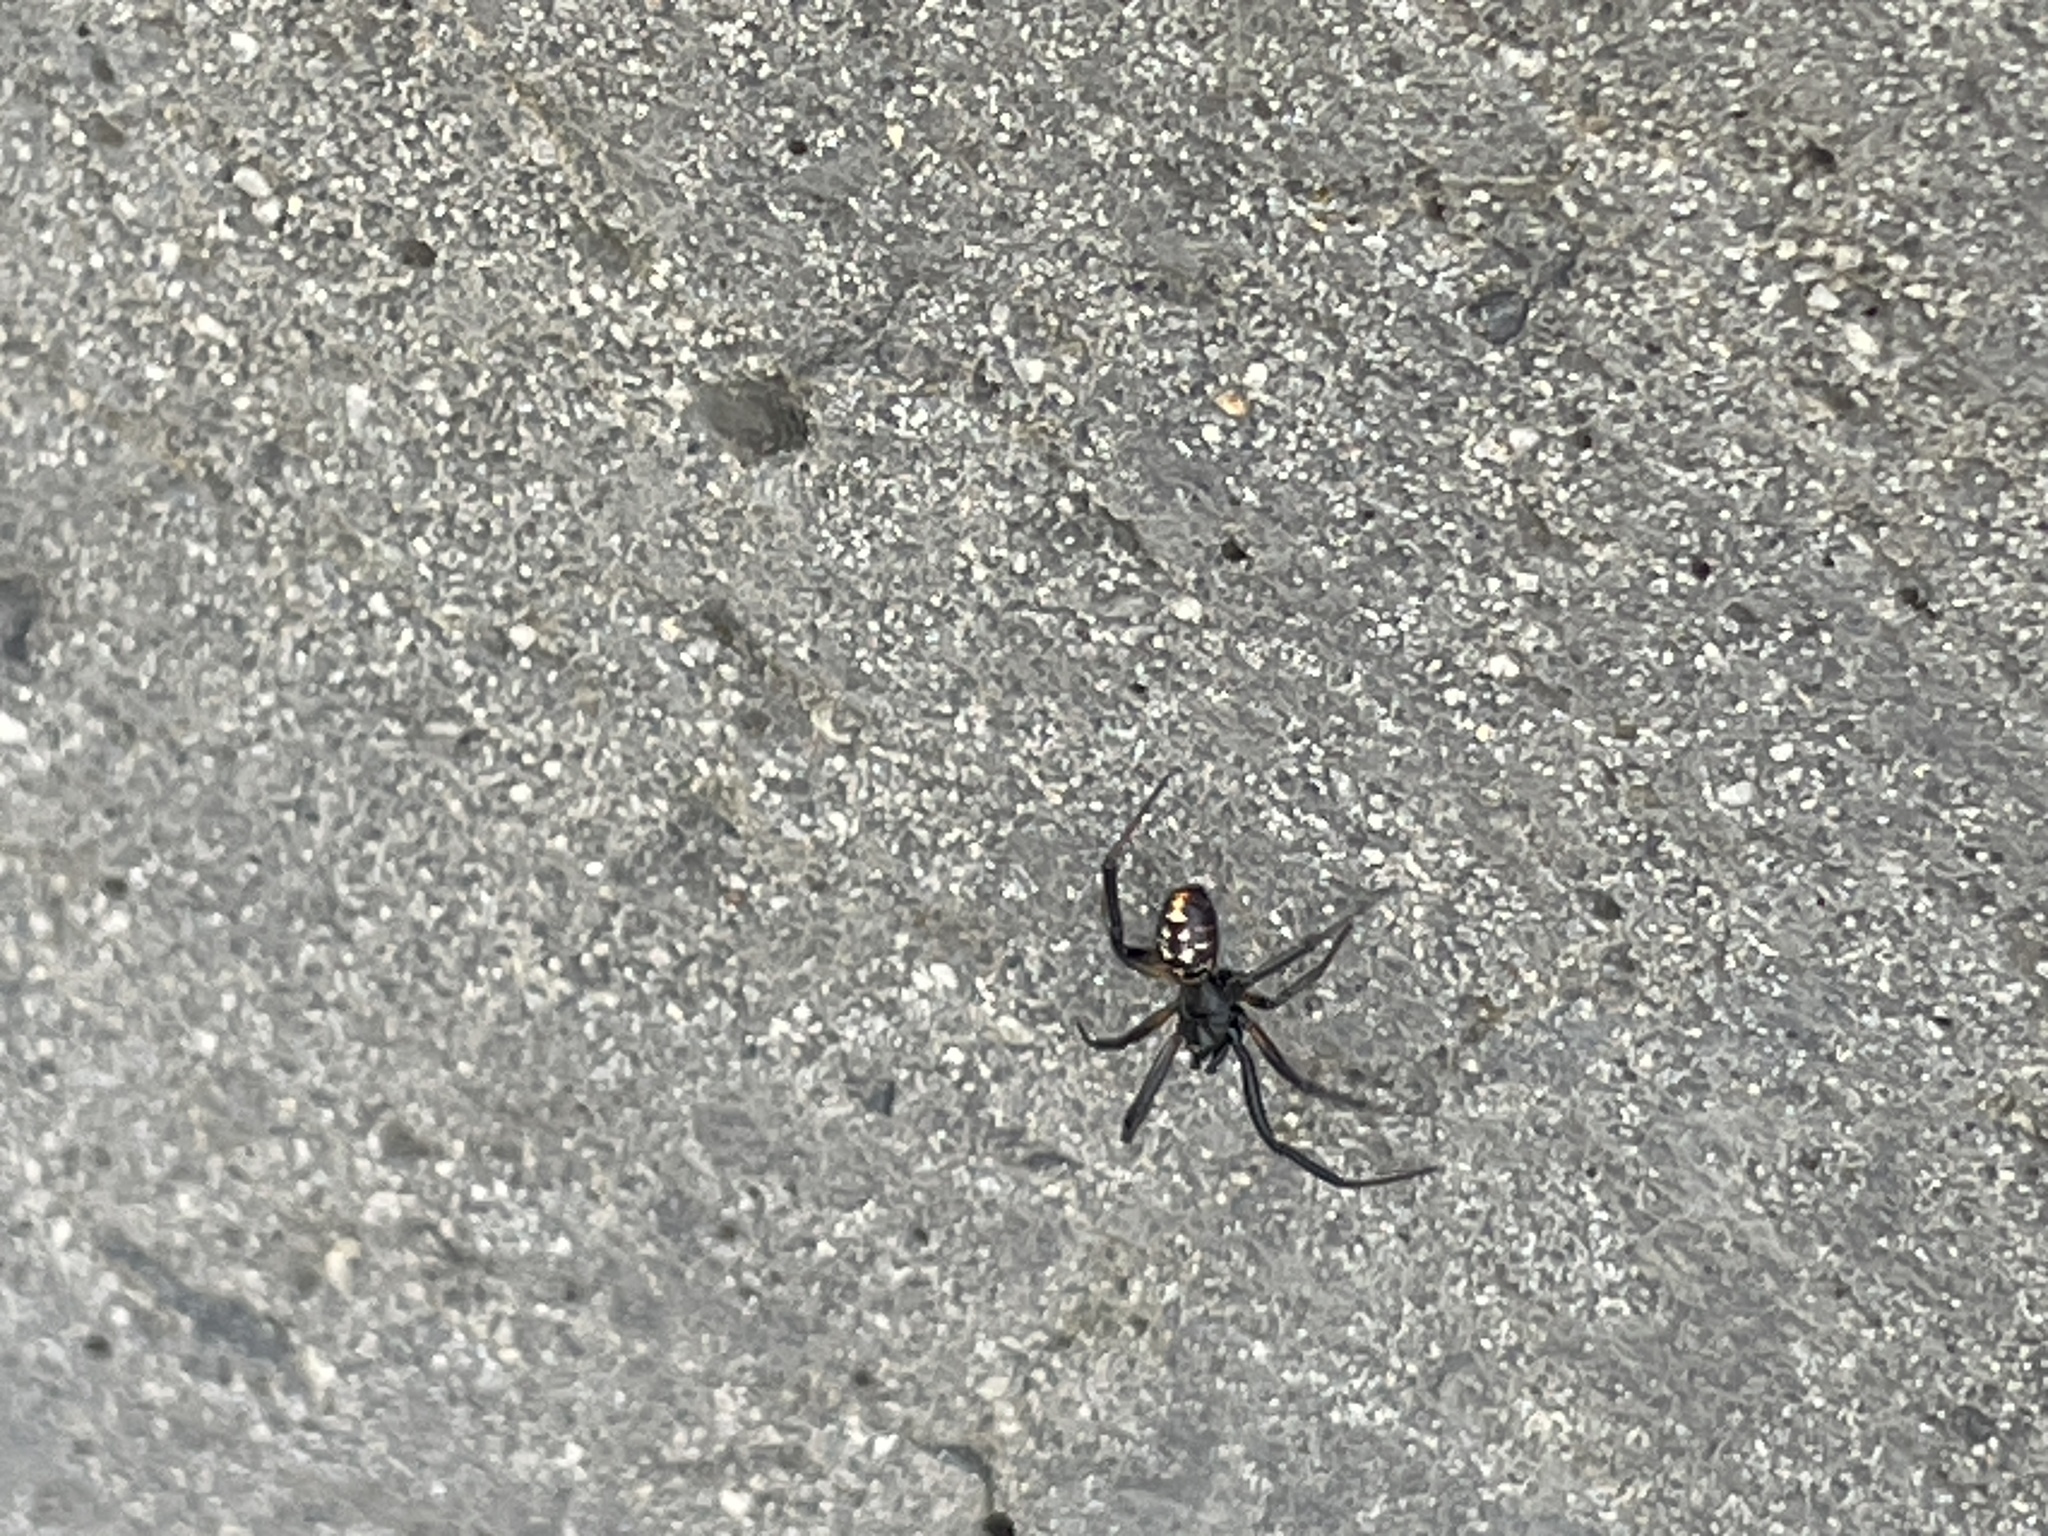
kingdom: Animalia
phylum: Arthropoda
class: Arachnida
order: Araneae
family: Theridiidae
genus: Steatoda
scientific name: Steatoda capensis
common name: Cobweb weaver
